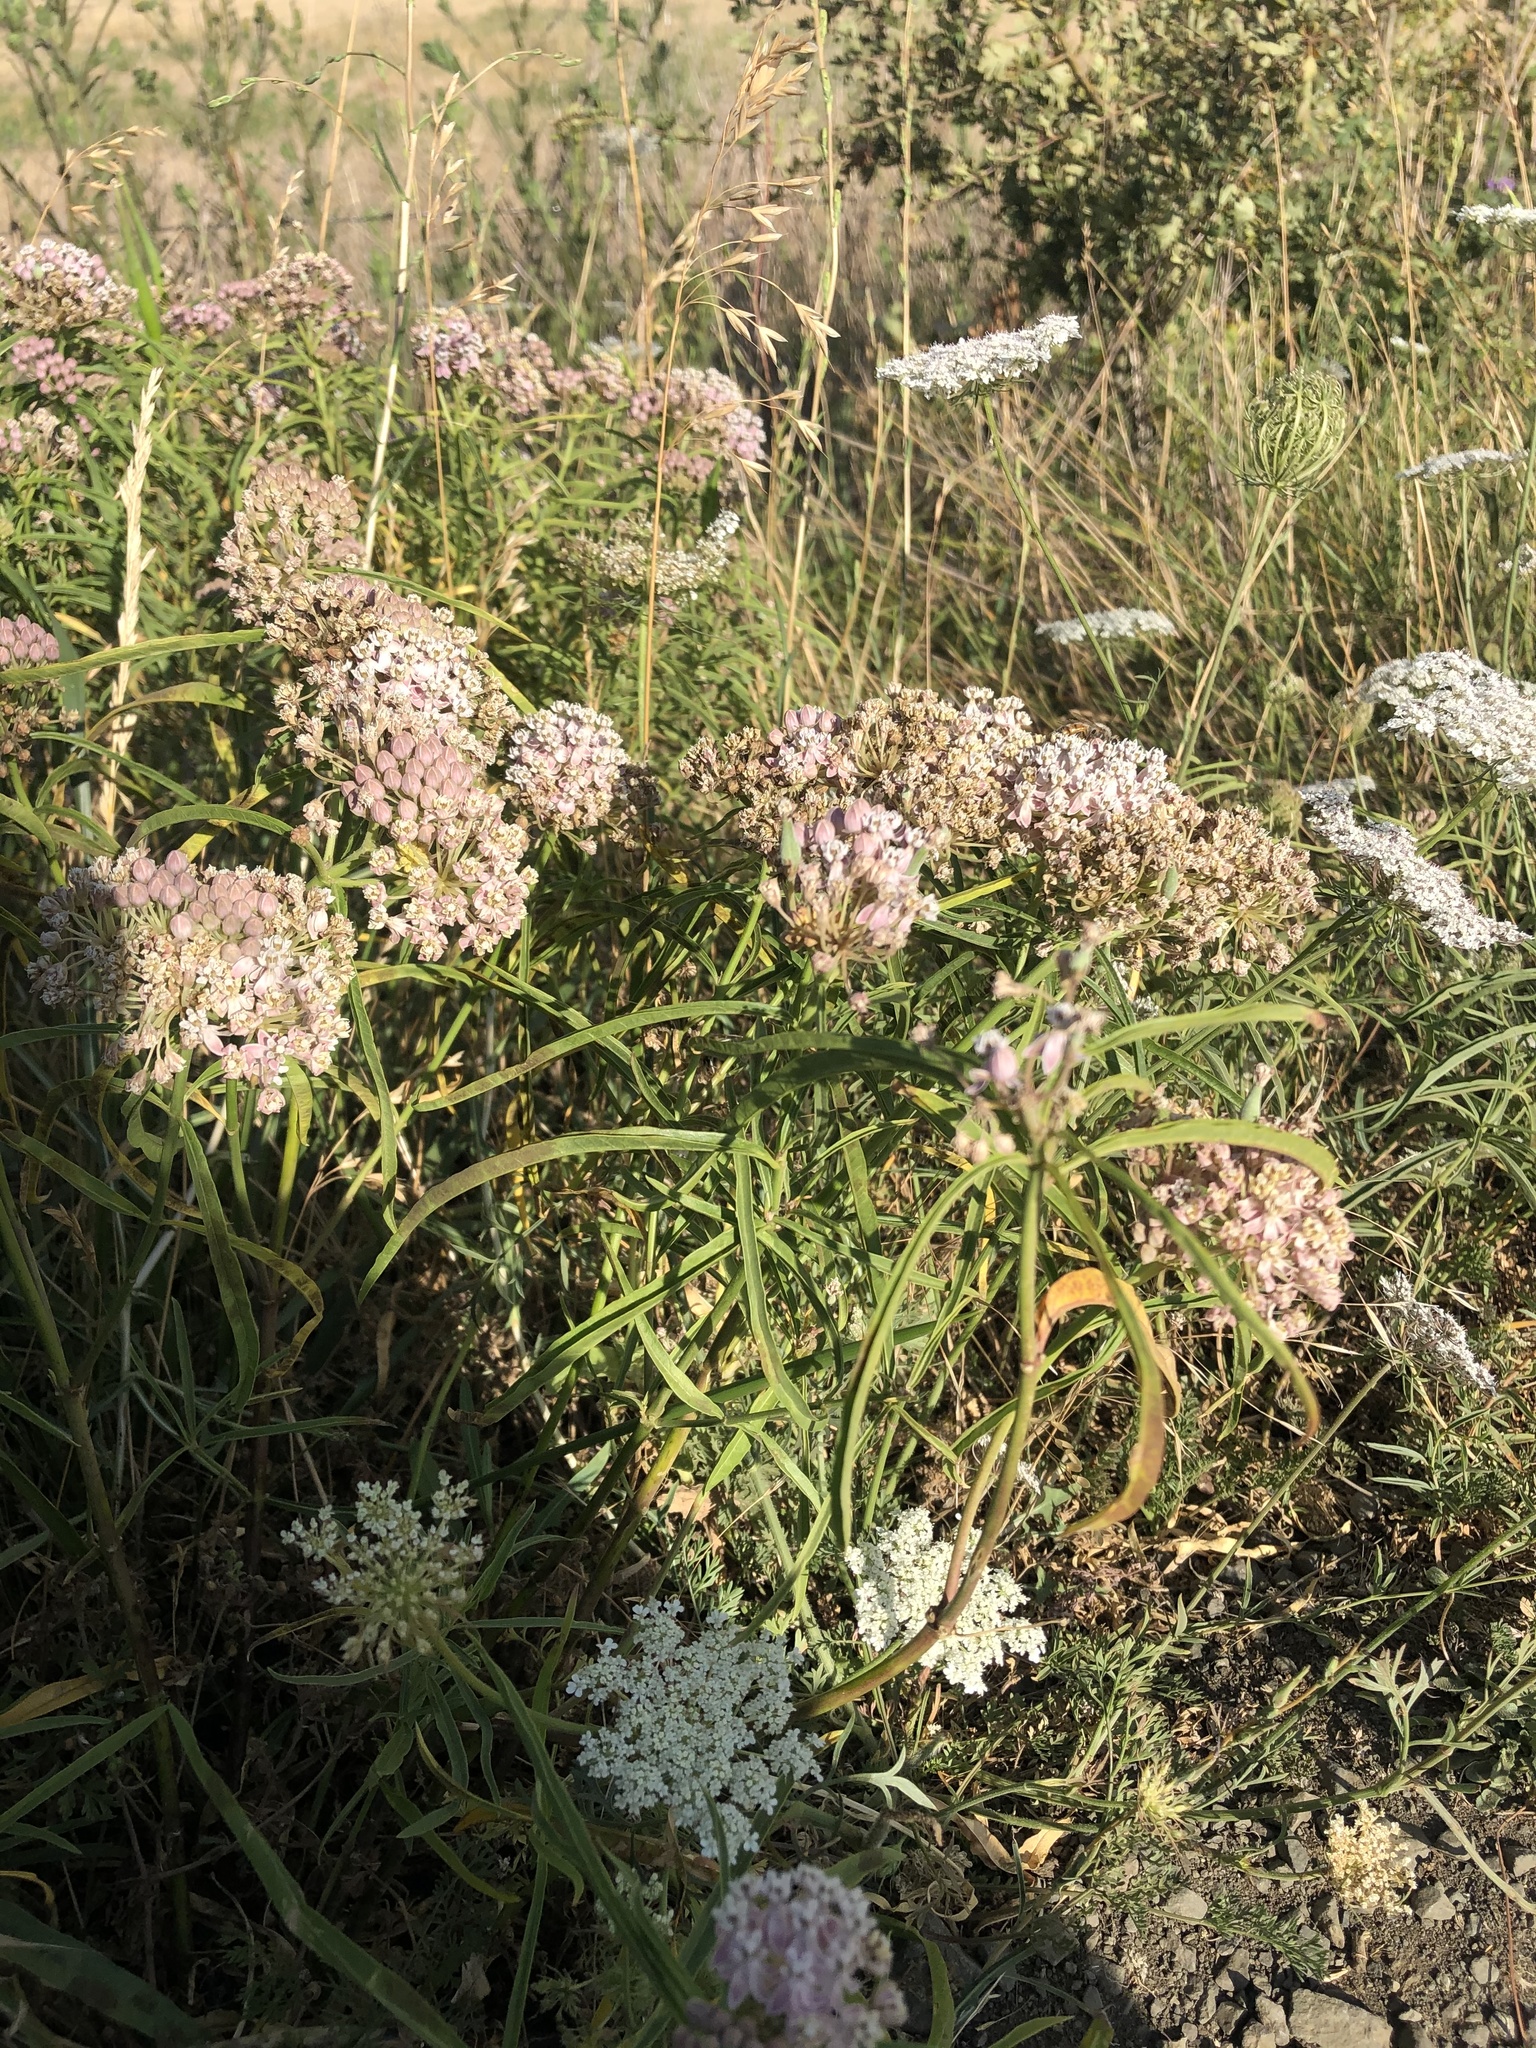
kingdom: Plantae
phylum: Tracheophyta
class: Magnoliopsida
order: Gentianales
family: Apocynaceae
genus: Asclepias
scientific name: Asclepias fascicularis
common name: Mexican milkweed
